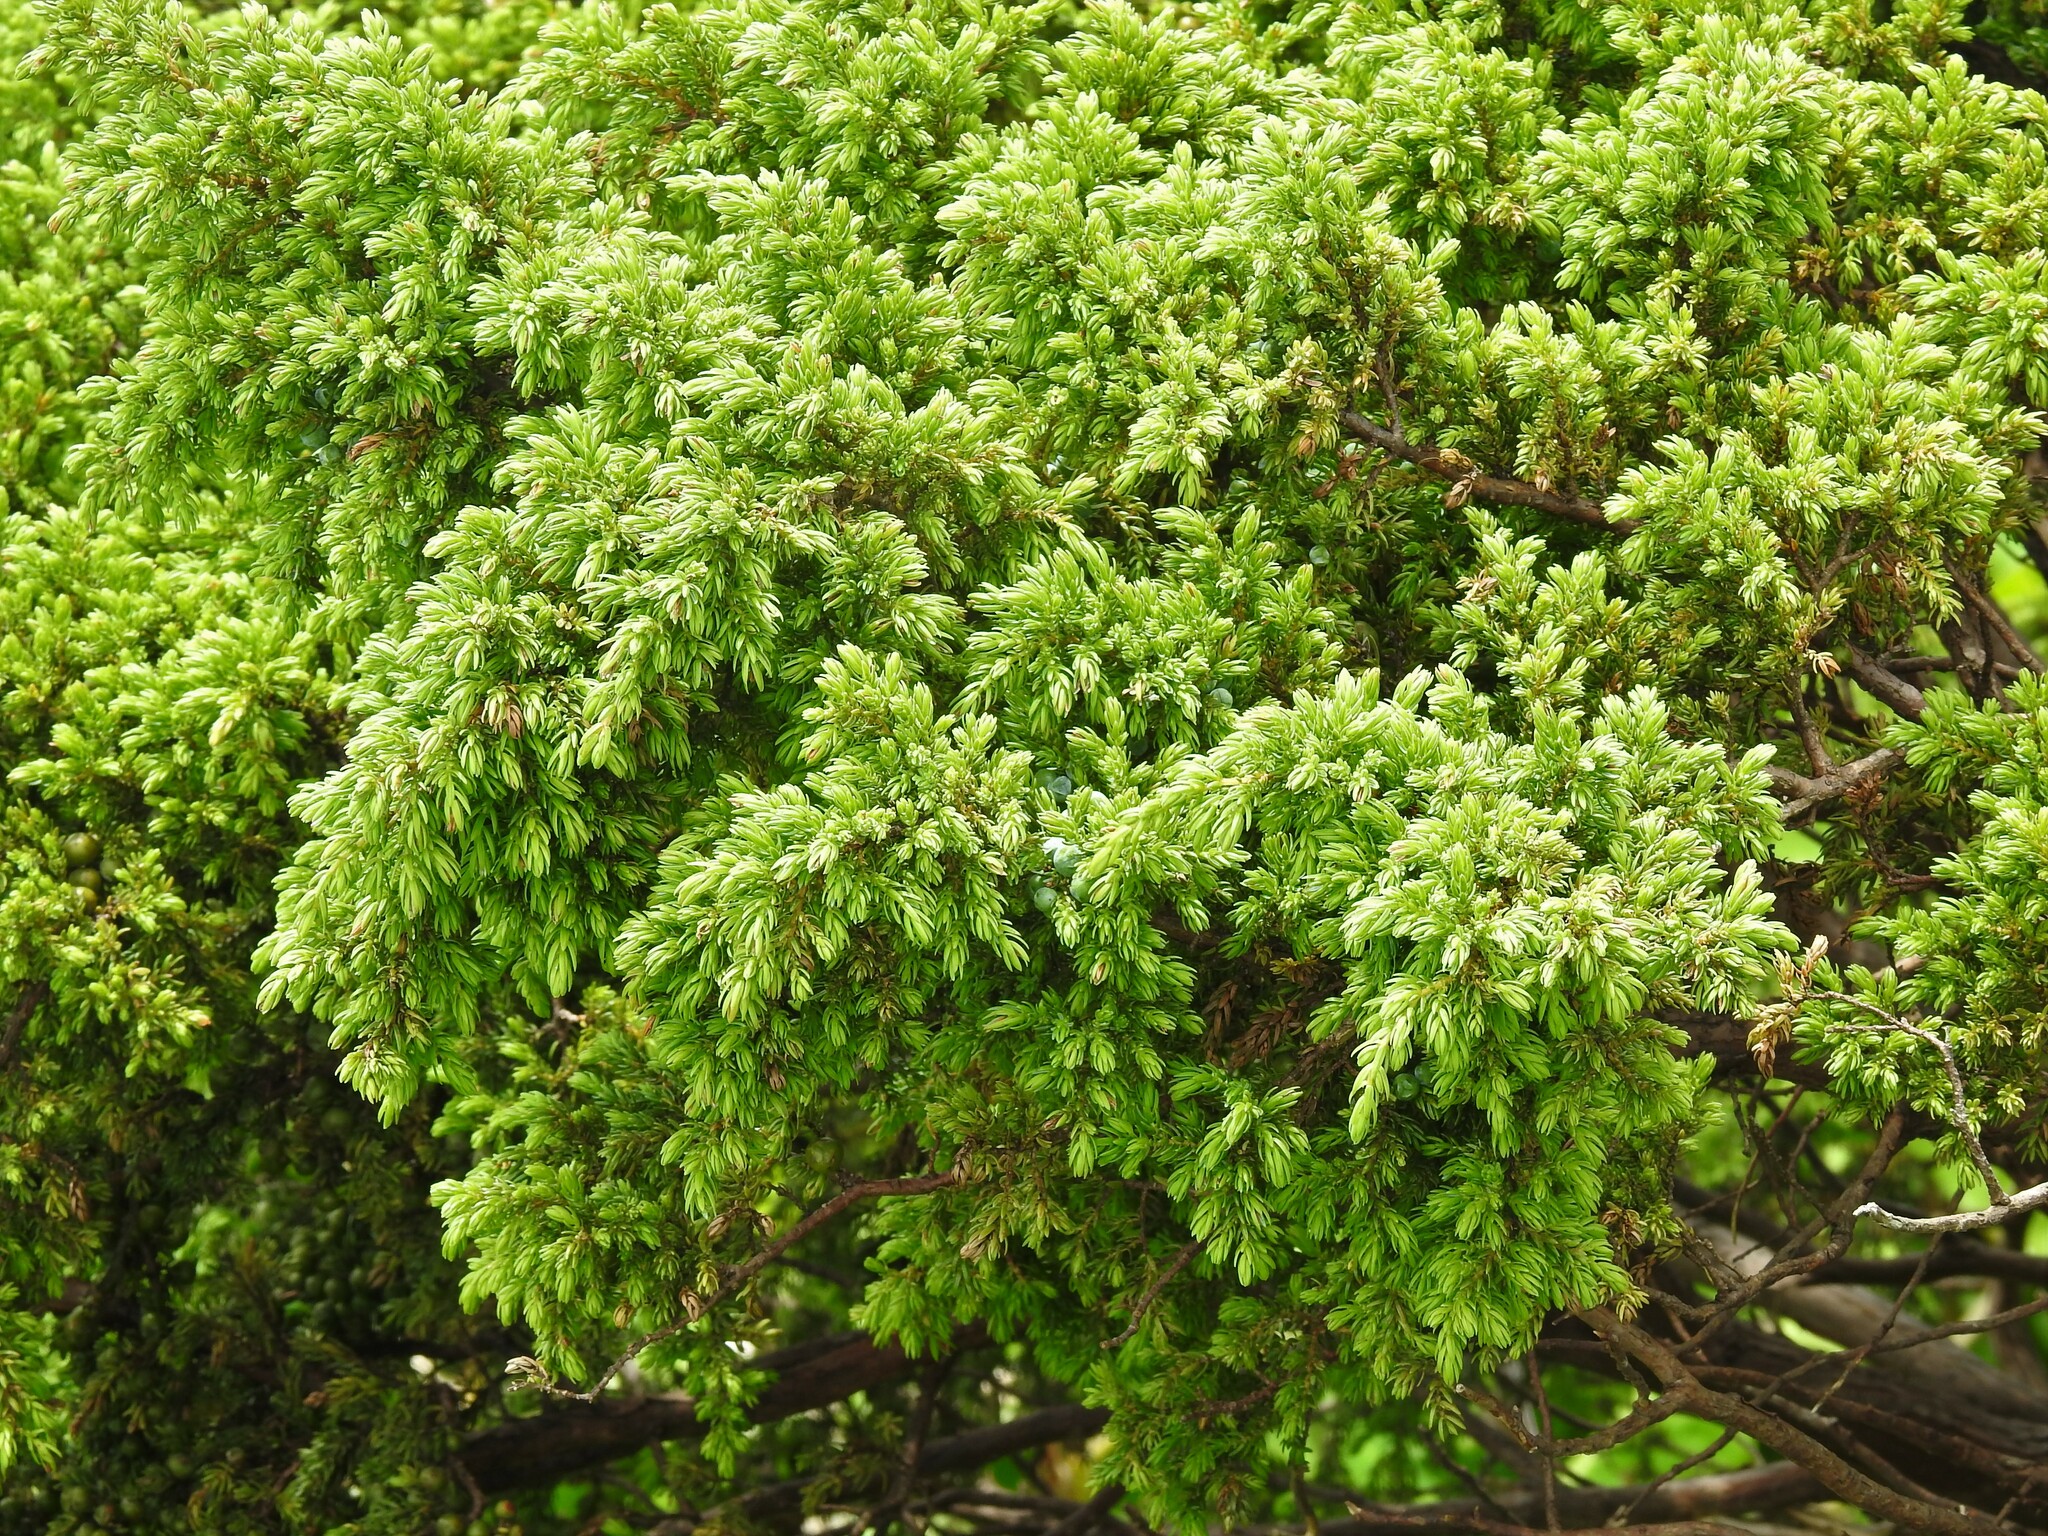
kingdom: Plantae
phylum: Tracheophyta
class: Pinopsida
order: Pinales
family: Cupressaceae
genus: Juniperus
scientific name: Juniperus brevifolia
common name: Azores juniper
